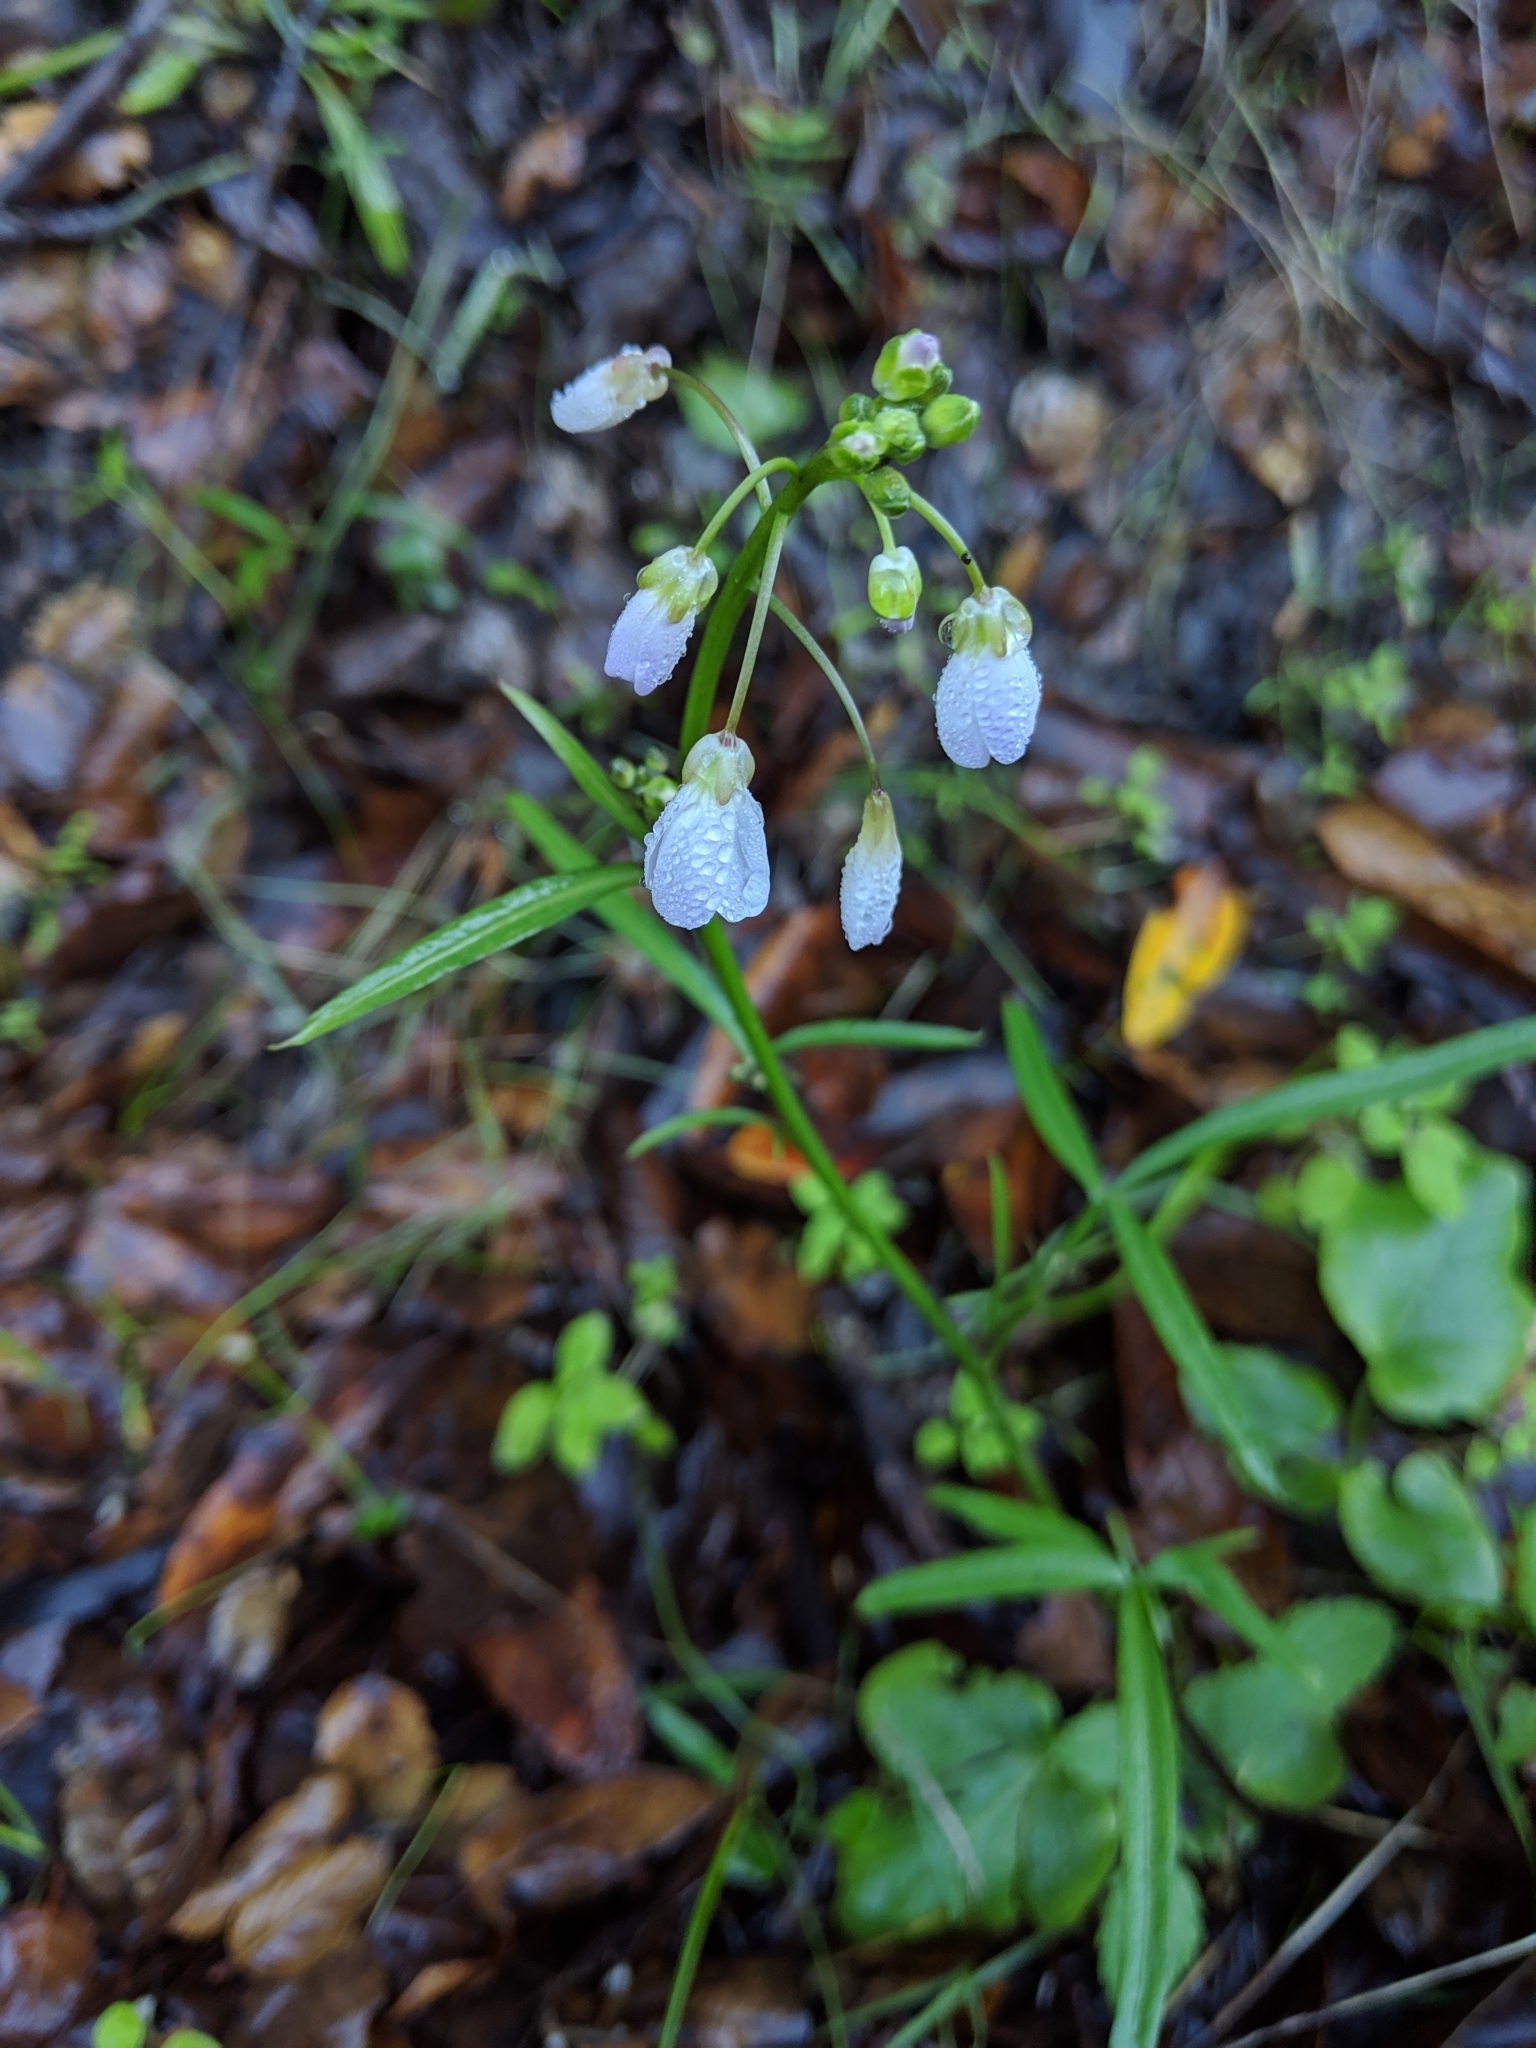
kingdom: Plantae
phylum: Tracheophyta
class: Magnoliopsida
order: Brassicales
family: Brassicaceae
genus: Cardamine
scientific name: Cardamine californica
